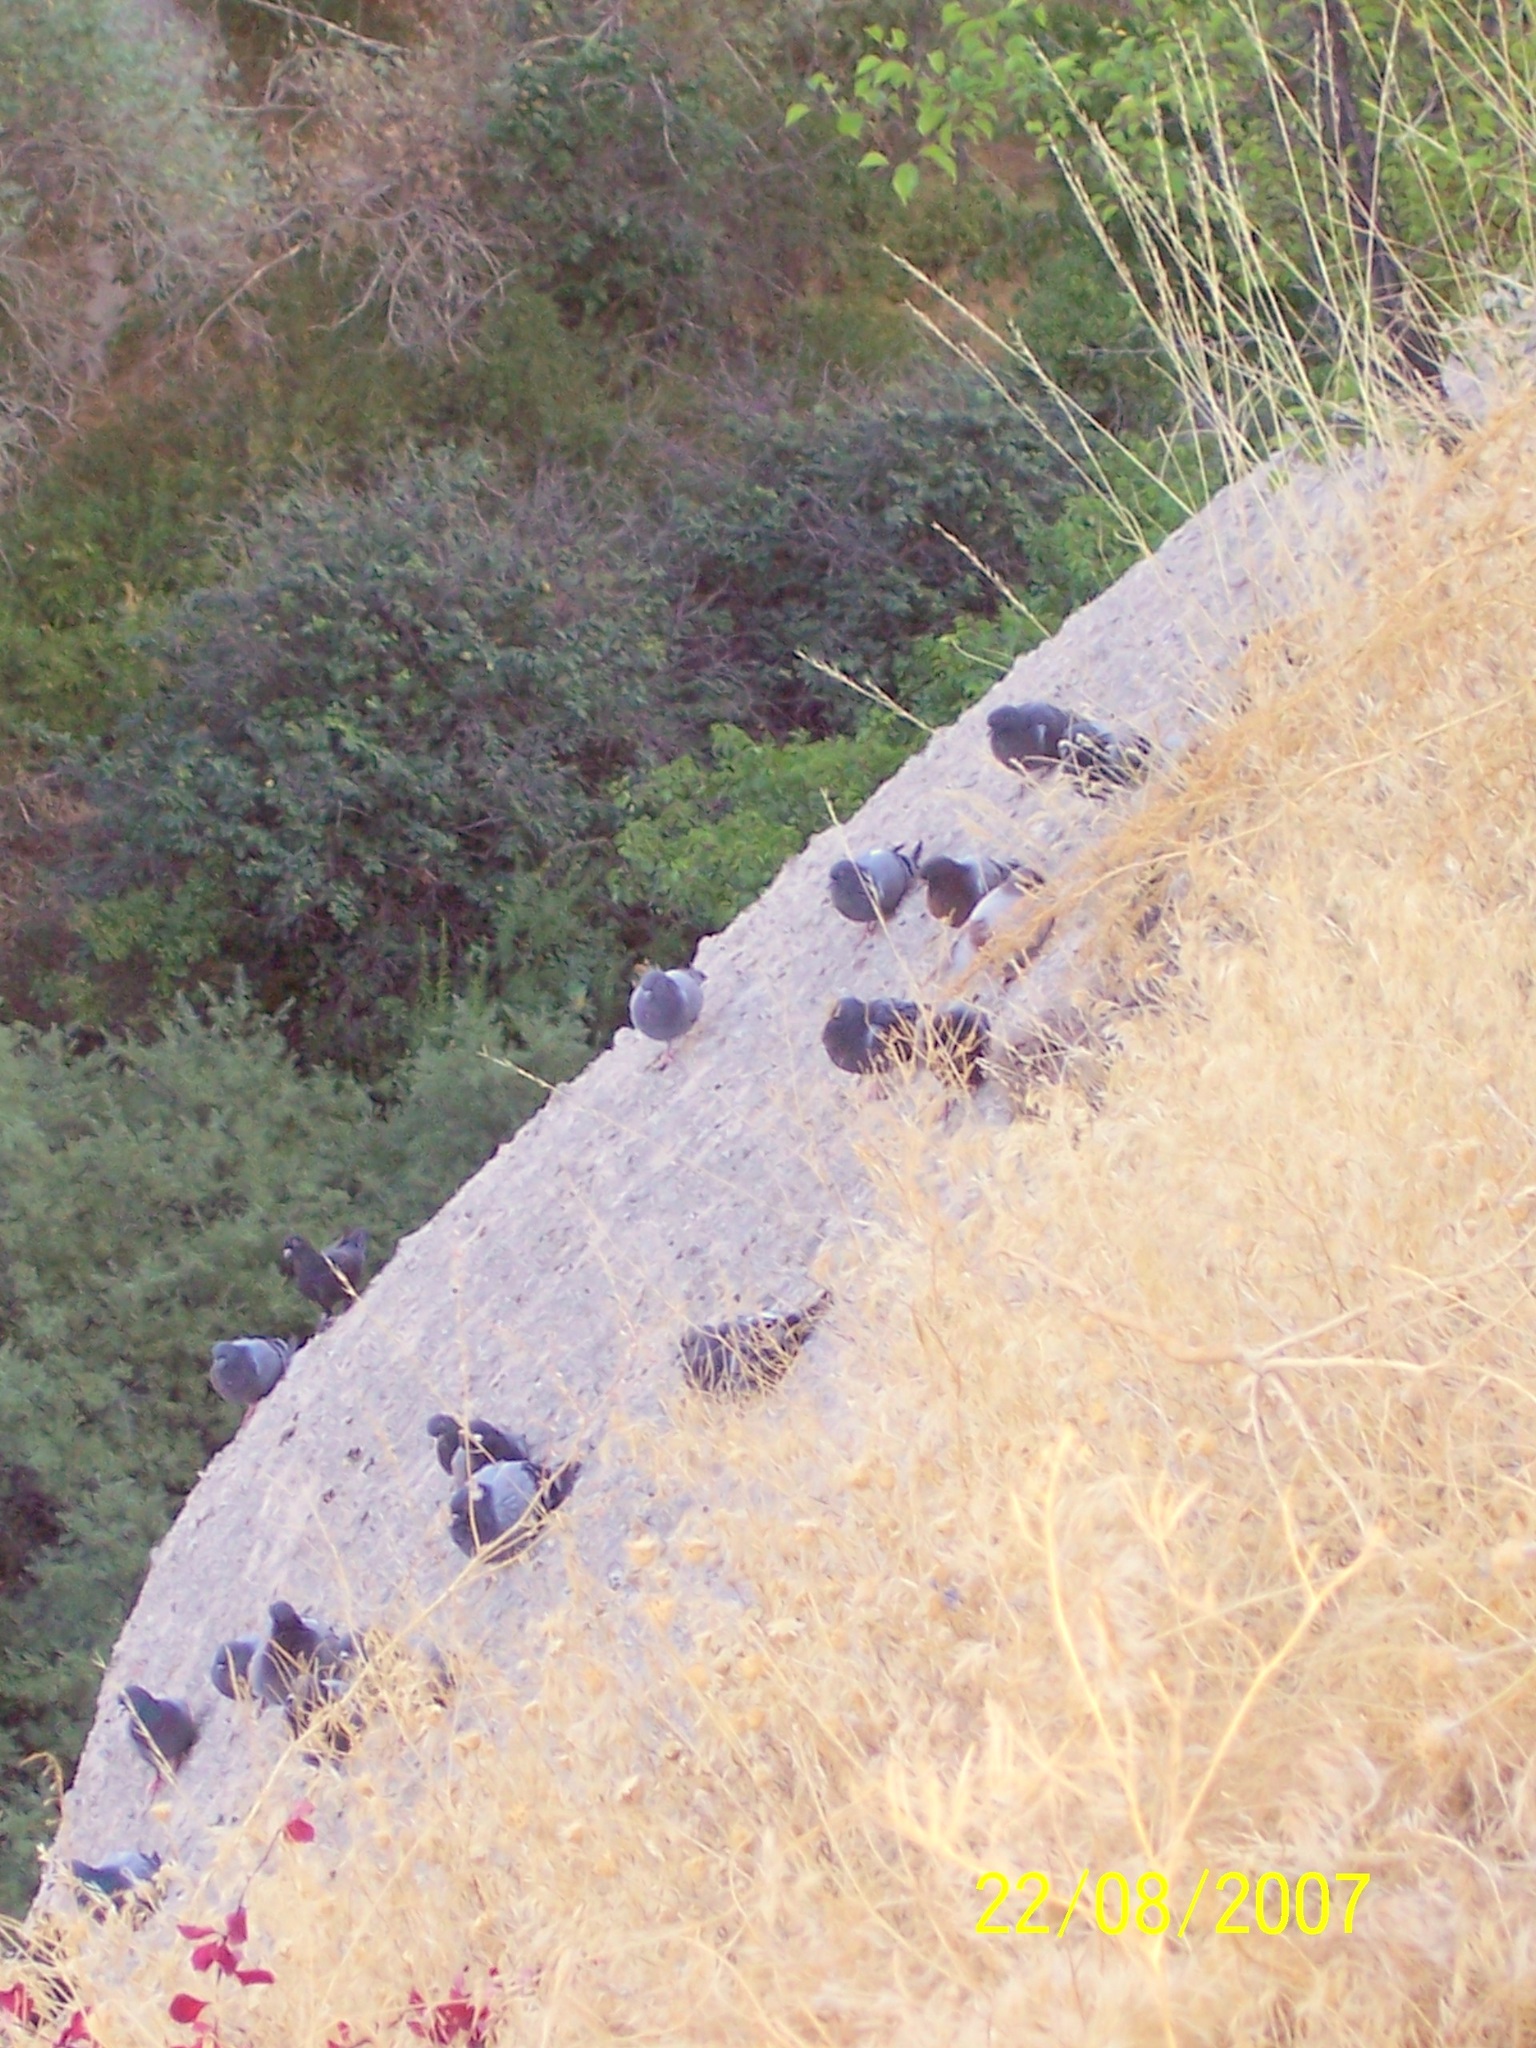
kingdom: Animalia
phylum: Chordata
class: Aves
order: Columbiformes
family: Columbidae
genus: Columba
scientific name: Columba livia
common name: Rock pigeon
